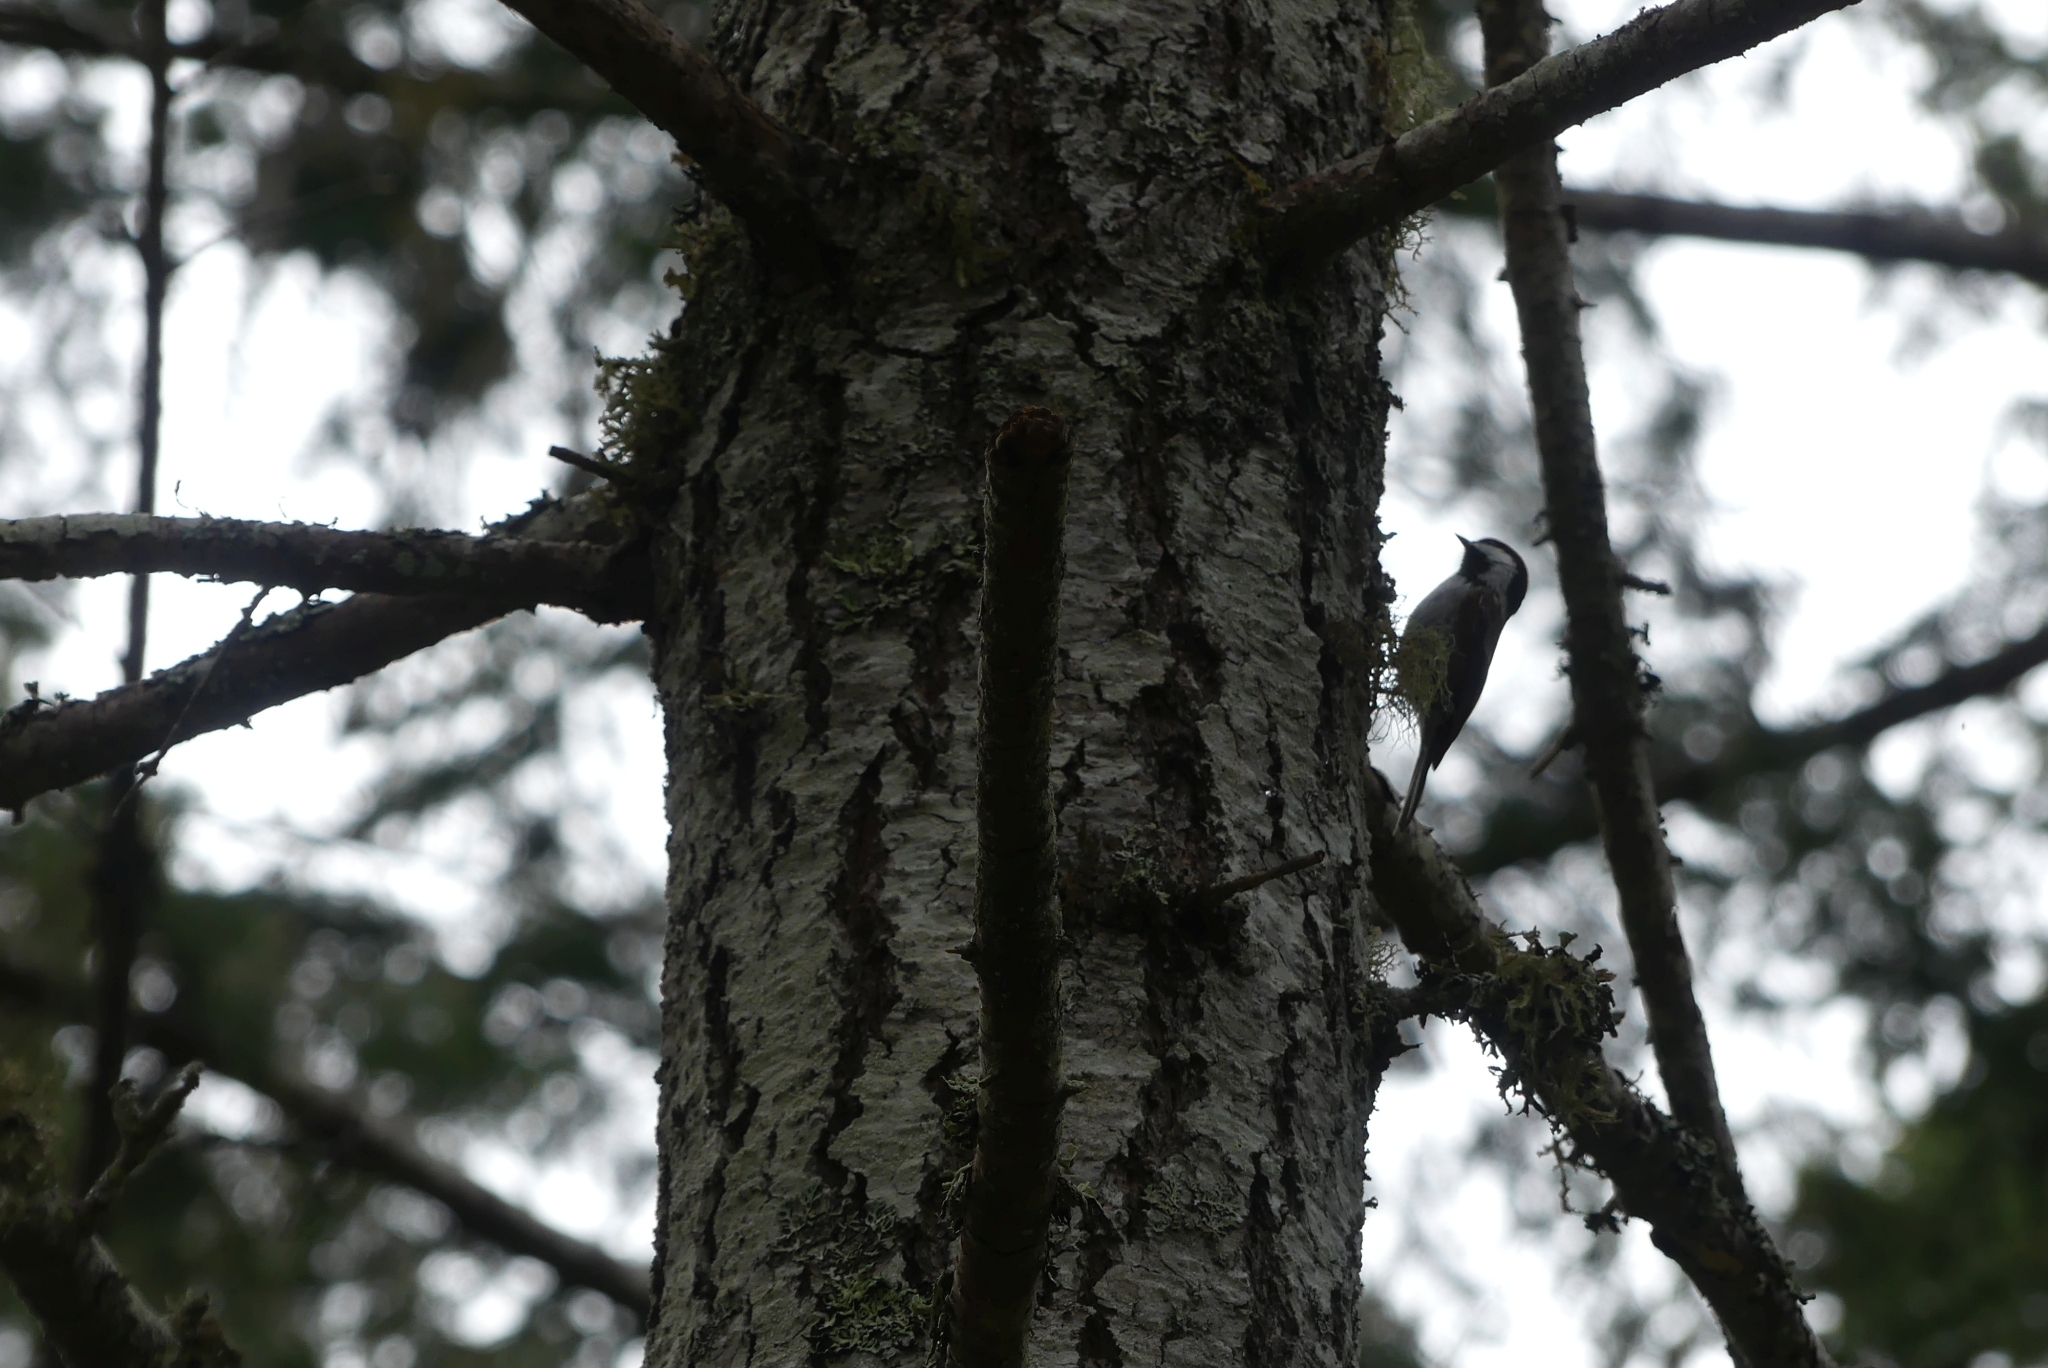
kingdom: Animalia
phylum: Chordata
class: Aves
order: Passeriformes
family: Paridae
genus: Poecile
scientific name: Poecile rufescens
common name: Chestnut-backed chickadee
